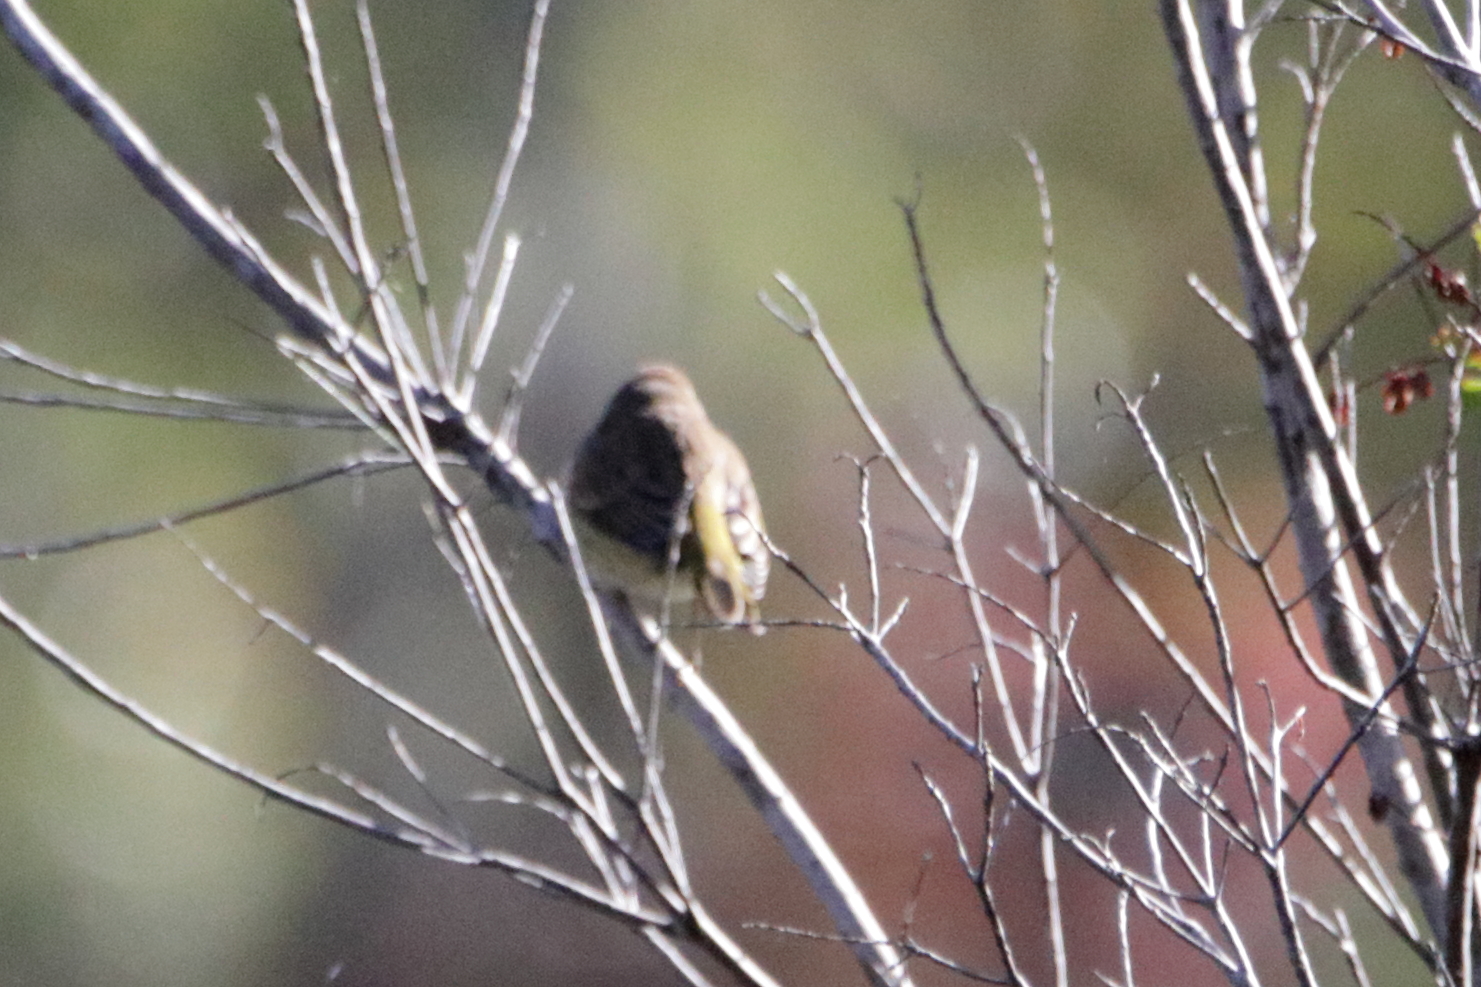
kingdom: Animalia
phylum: Chordata
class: Aves
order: Passeriformes
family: Parulidae
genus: Setophaga
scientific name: Setophaga palmarum
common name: Palm warbler
